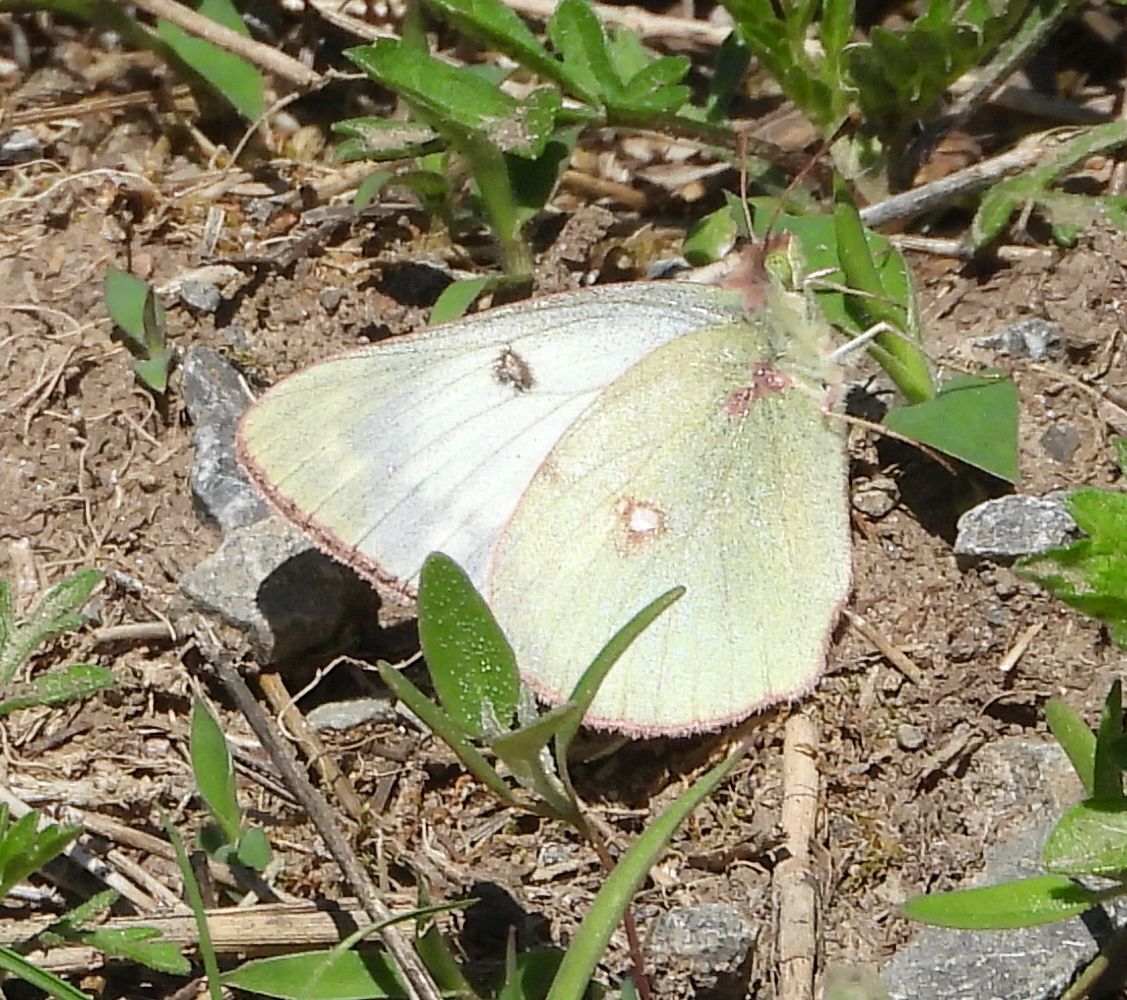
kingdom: Animalia
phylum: Arthropoda
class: Insecta
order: Lepidoptera
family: Pieridae
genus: Colias
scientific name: Colias philodice
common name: Clouded sulphur
